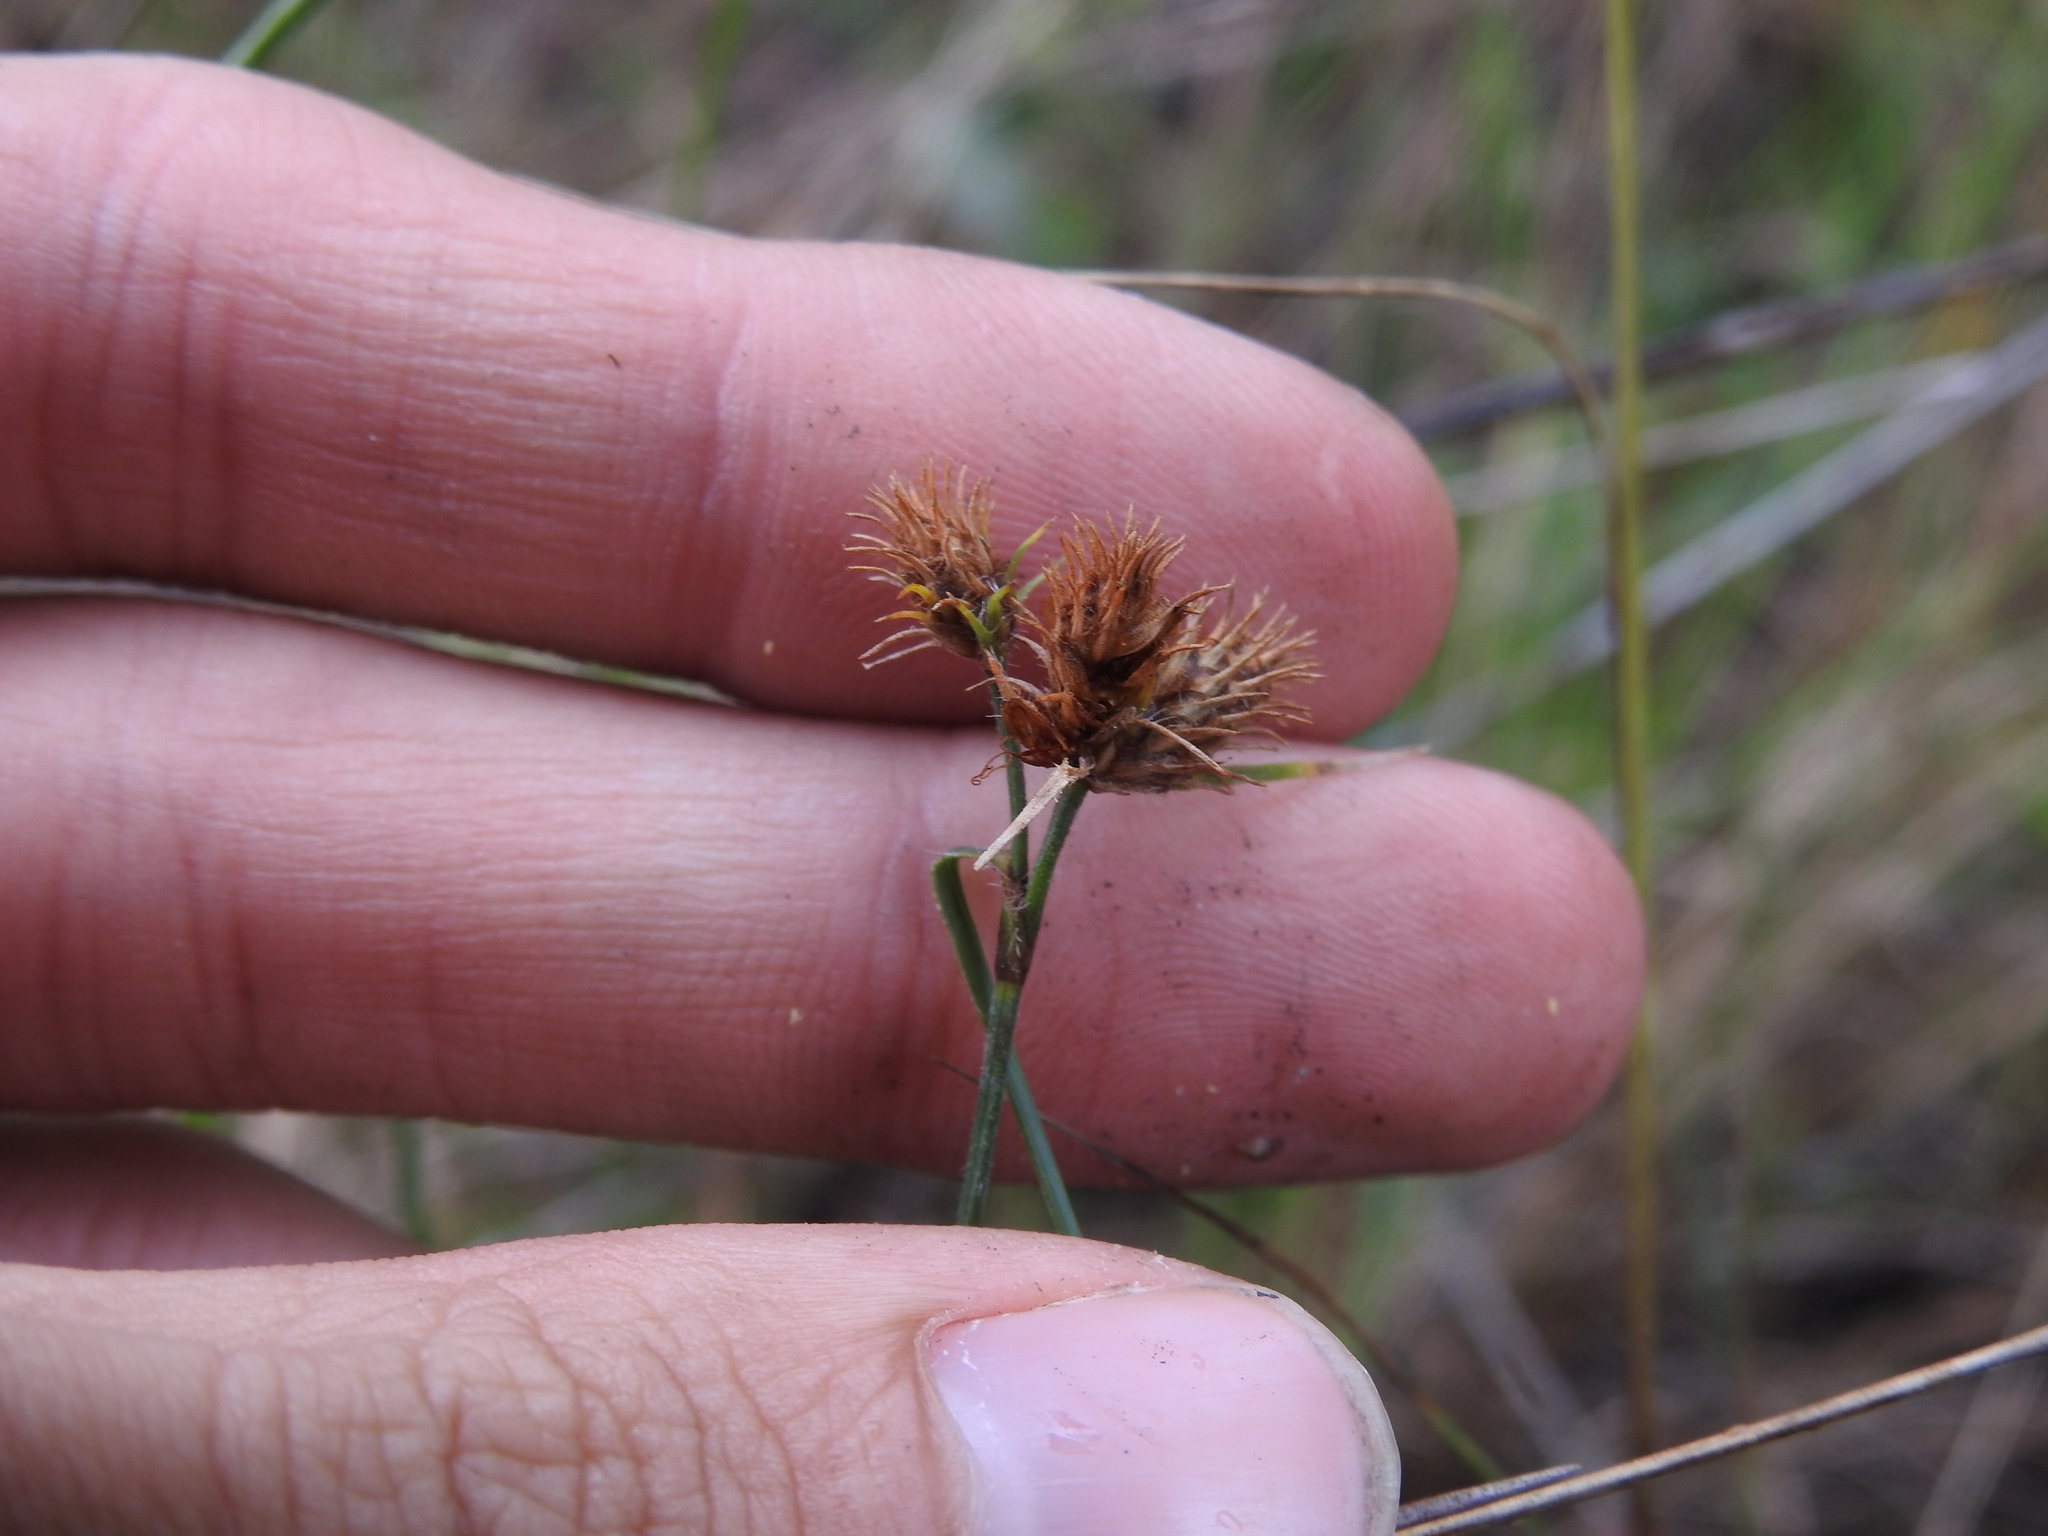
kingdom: Plantae
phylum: Tracheophyta
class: Liliopsida
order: Poales
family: Cyperaceae
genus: Fuirena
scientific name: Fuirena breviseta
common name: Saltmarsh umbrella sedge
